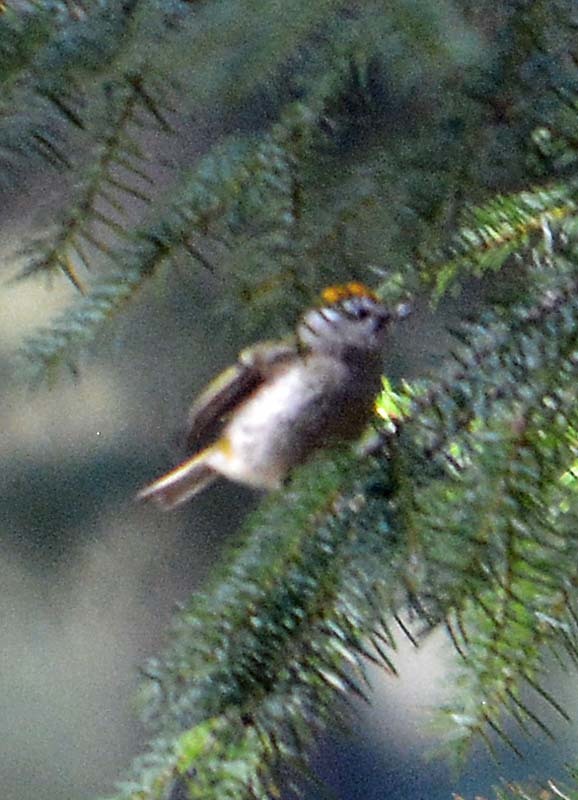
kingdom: Animalia
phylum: Chordata
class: Aves
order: Passeriformes
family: Regulidae
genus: Regulus
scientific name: Regulus satrapa
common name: Golden-crowned kinglet
